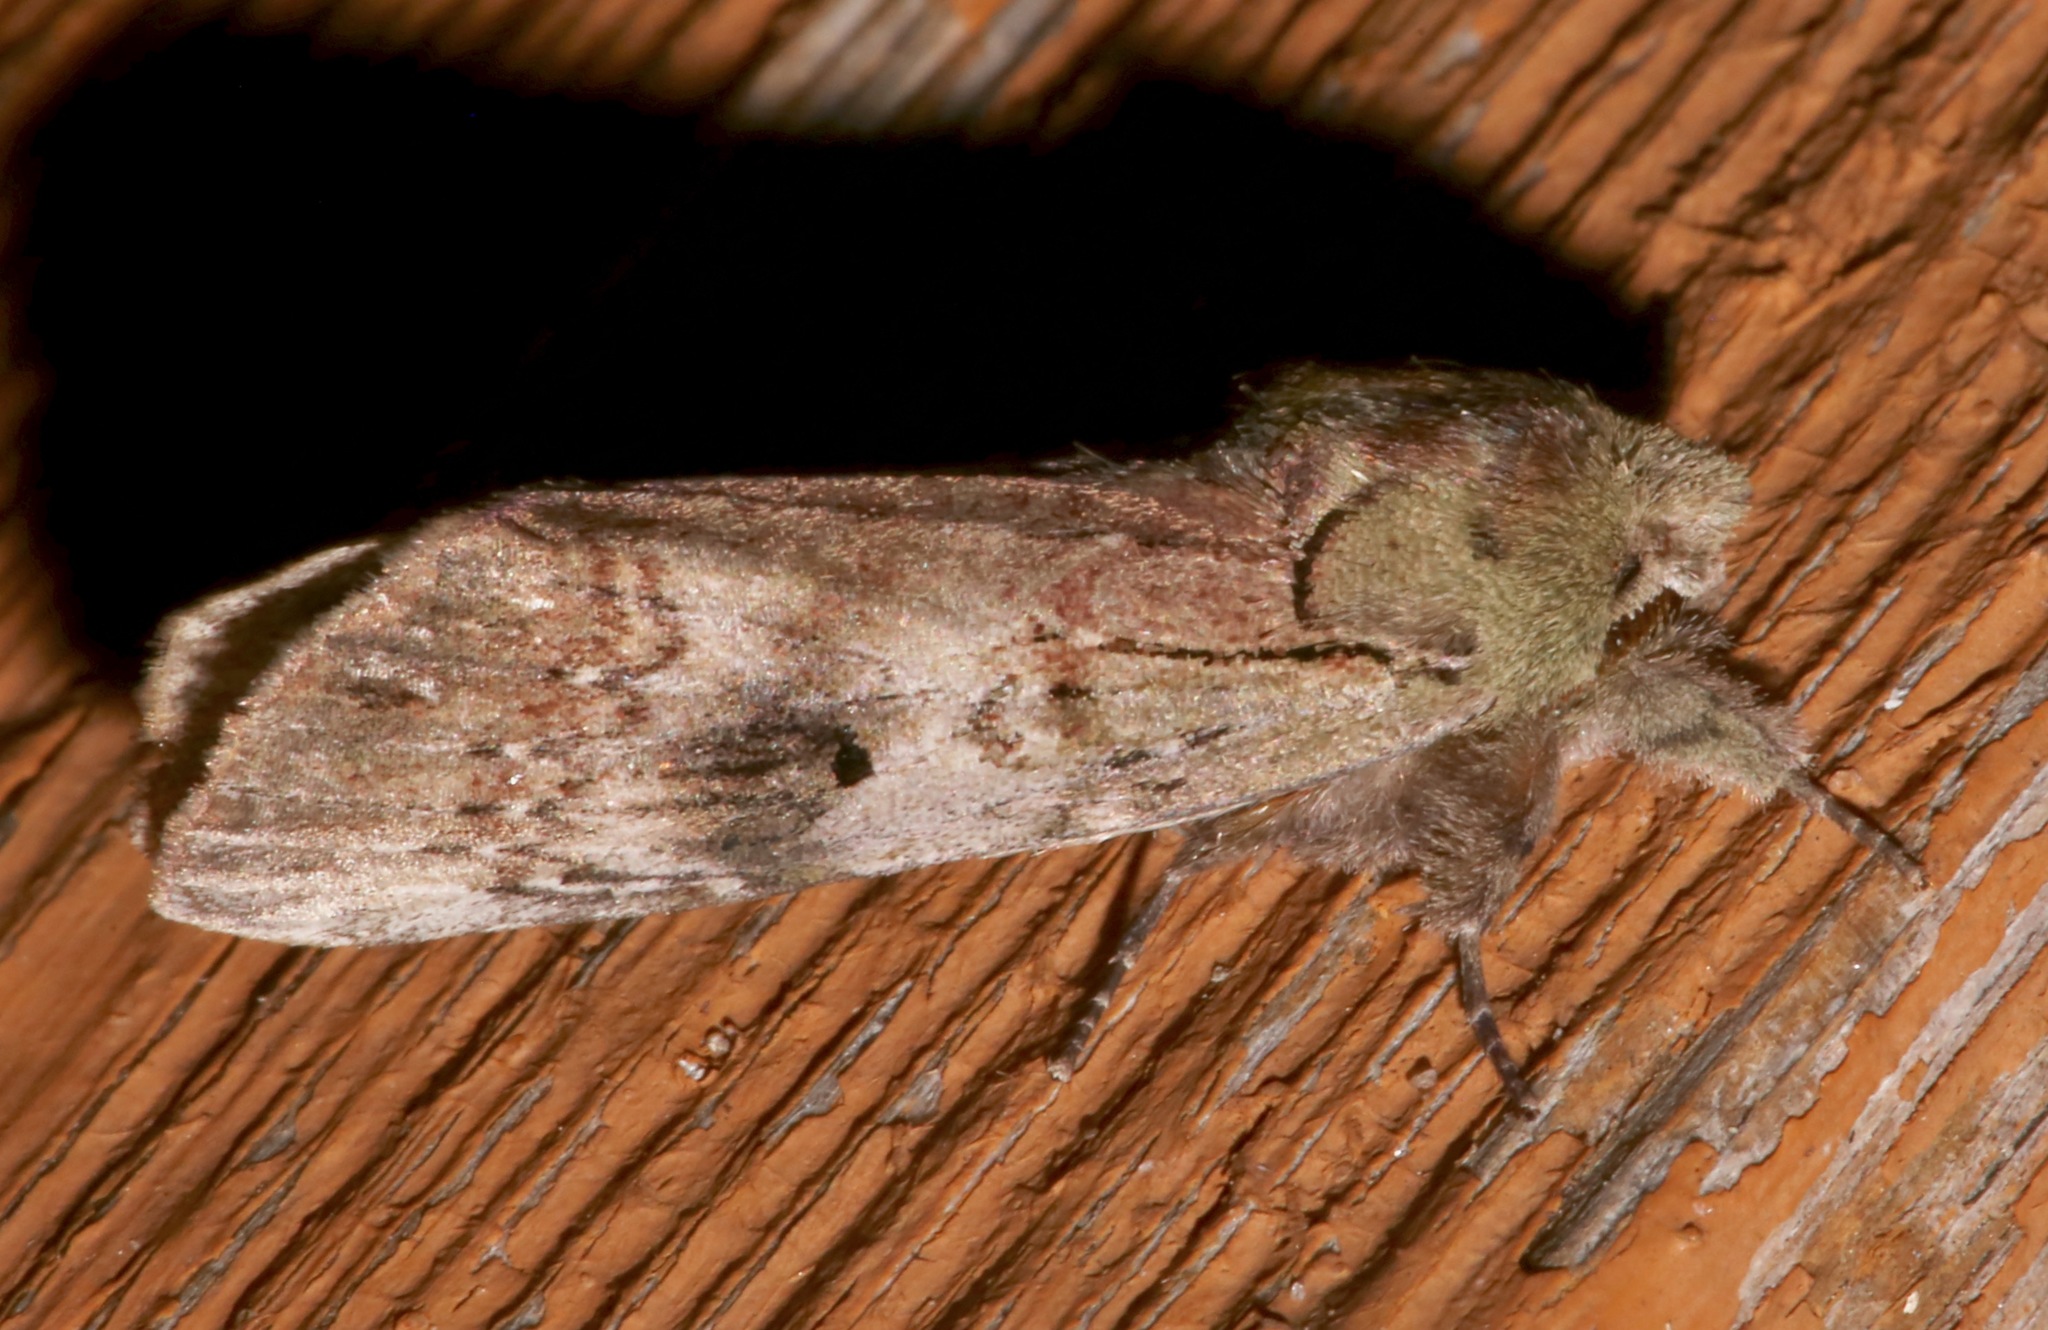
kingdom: Animalia
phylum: Arthropoda
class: Insecta
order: Lepidoptera
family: Notodontidae
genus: Schizura
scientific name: Schizura
